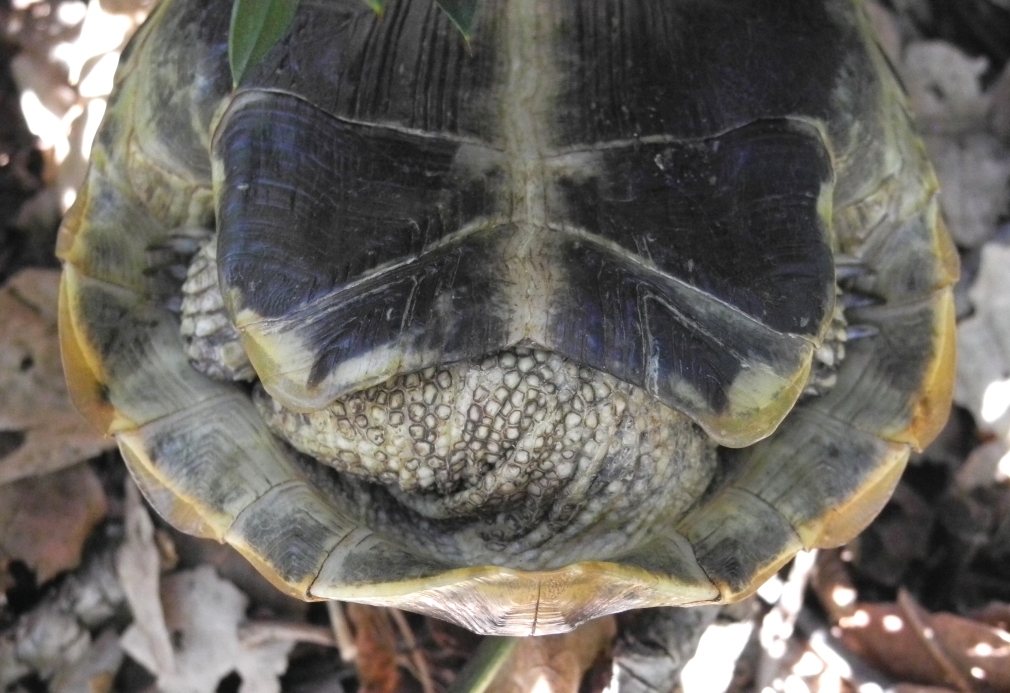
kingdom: Animalia
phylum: Chordata
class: Testudines
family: Testudinidae
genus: Testudo
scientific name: Testudo hermanni
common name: Hermann's tortoise
